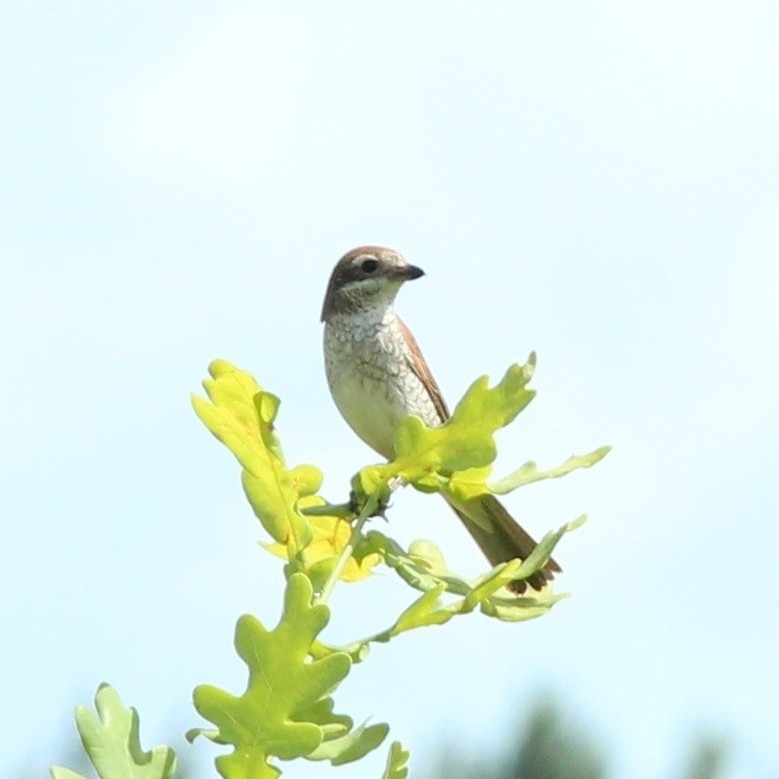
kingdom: Animalia
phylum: Chordata
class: Aves
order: Passeriformes
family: Laniidae
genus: Lanius
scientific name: Lanius collurio
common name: Red-backed shrike
